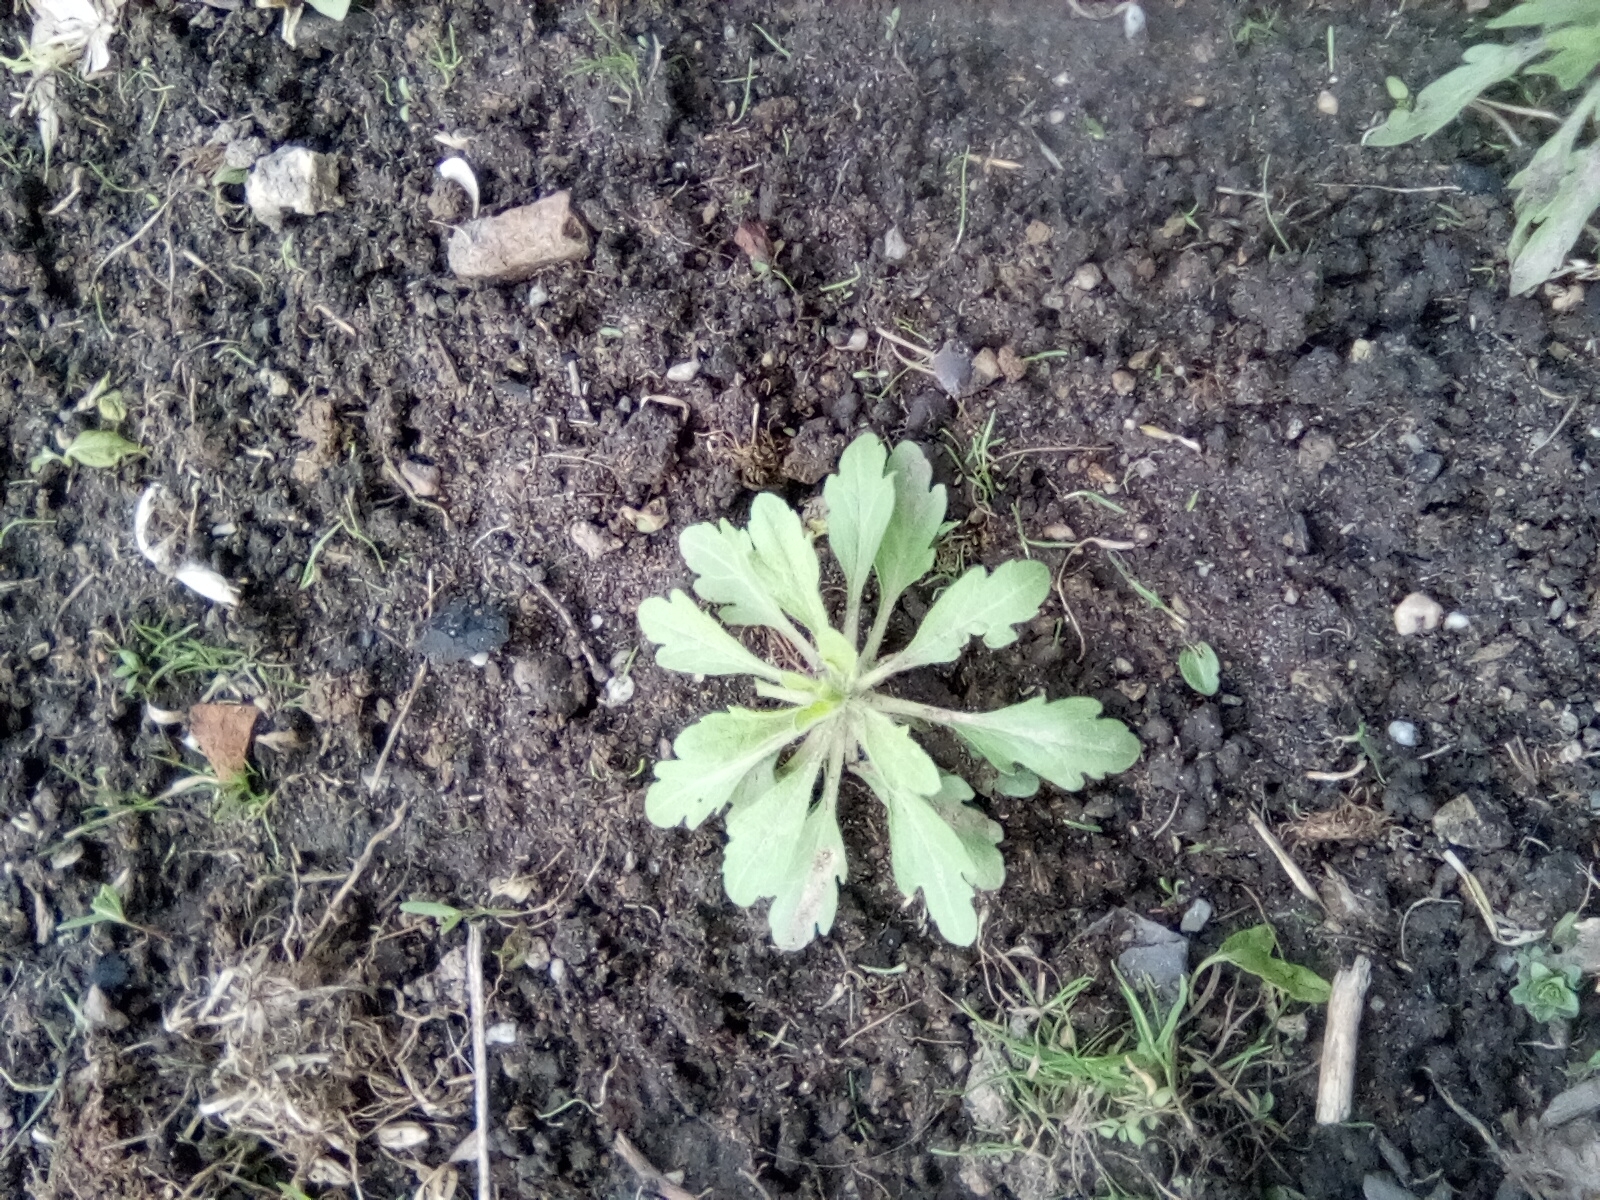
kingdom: Plantae
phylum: Tracheophyta
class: Magnoliopsida
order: Asterales
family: Asteraceae
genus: Erigeron
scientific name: Erigeron canadensis
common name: Canadian fleabane
